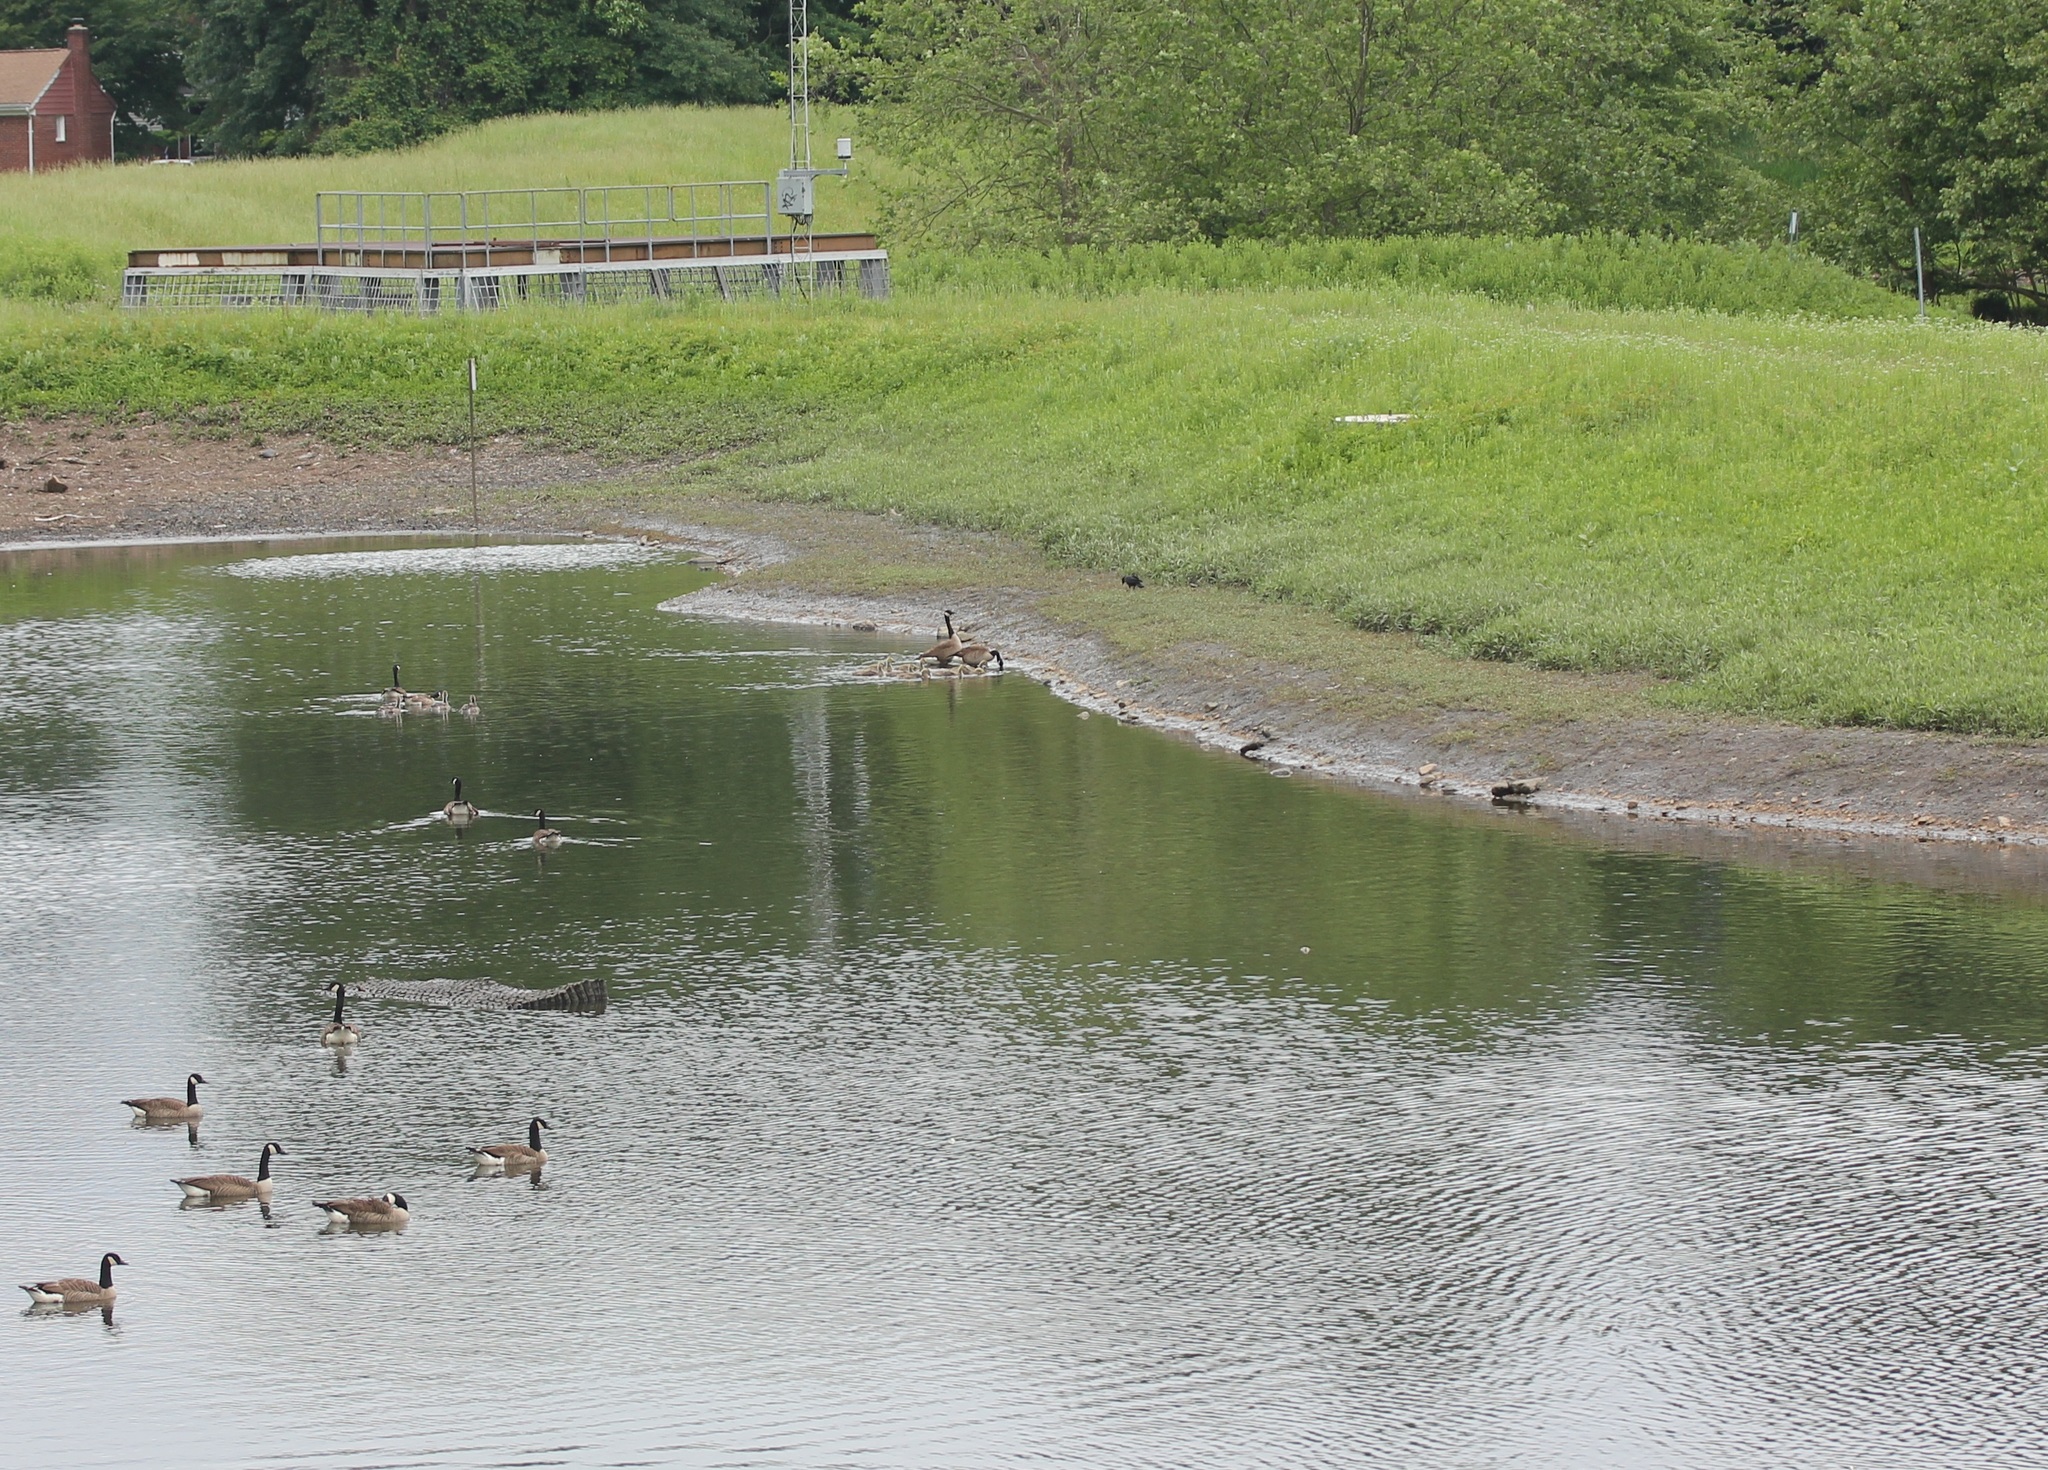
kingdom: Animalia
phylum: Chordata
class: Aves
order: Anseriformes
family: Anatidae
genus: Branta
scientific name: Branta canadensis
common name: Canada goose
